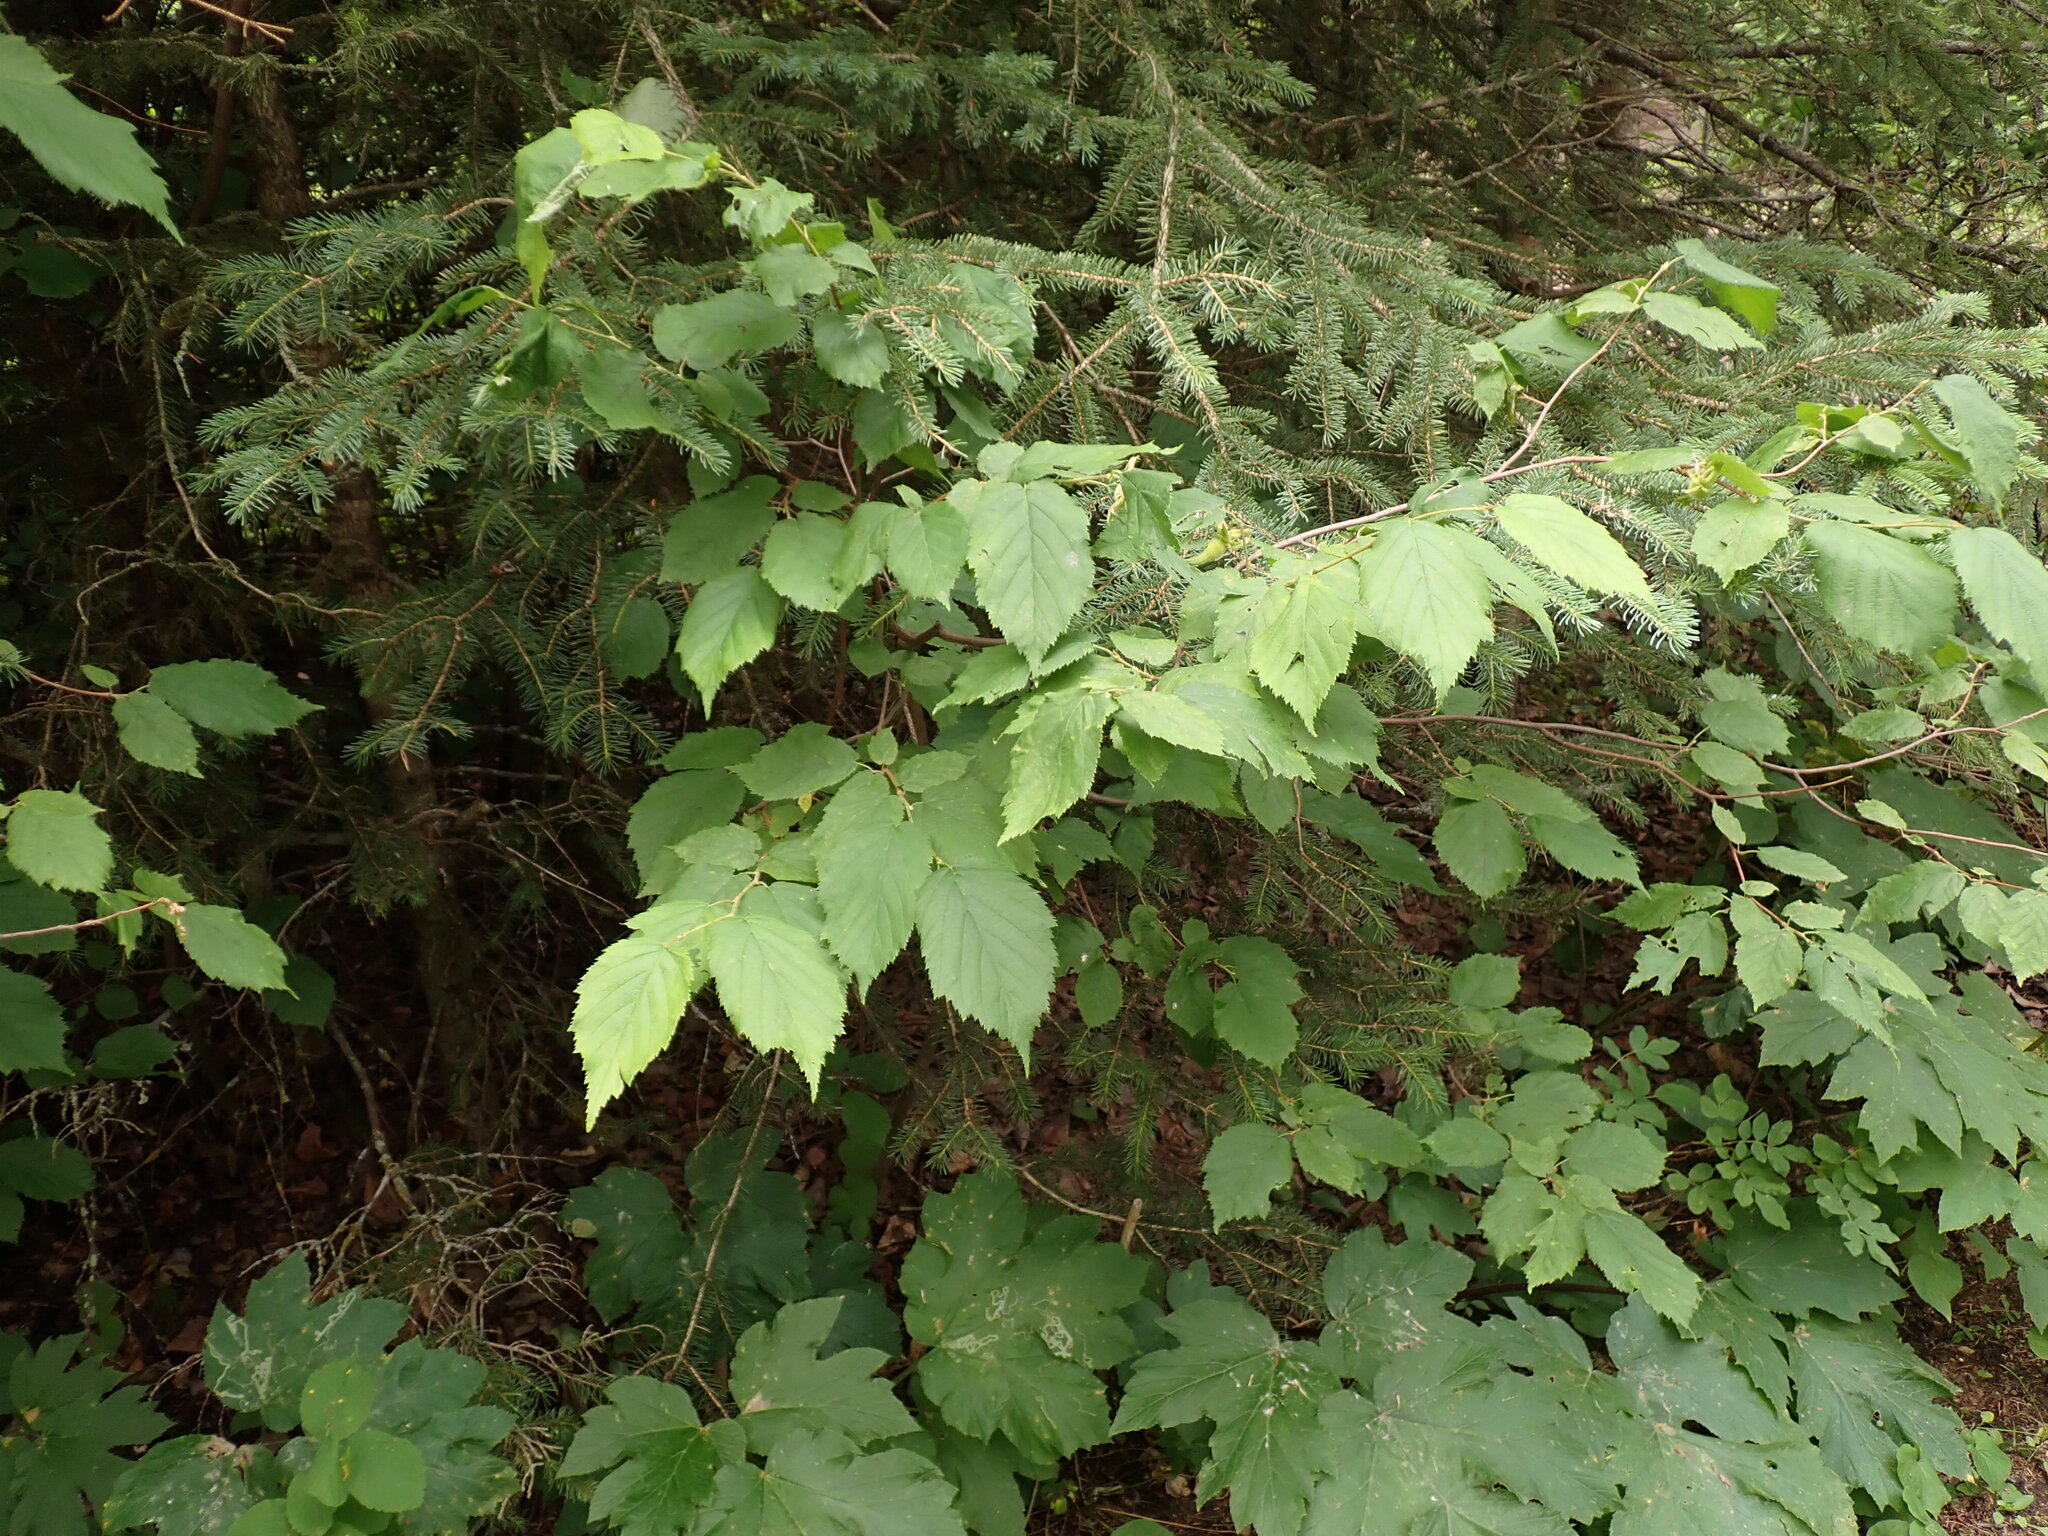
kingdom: Plantae
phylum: Tracheophyta
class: Magnoliopsida
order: Fagales
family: Betulaceae
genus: Corylus
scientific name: Corylus cornuta
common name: Beaked hazel
